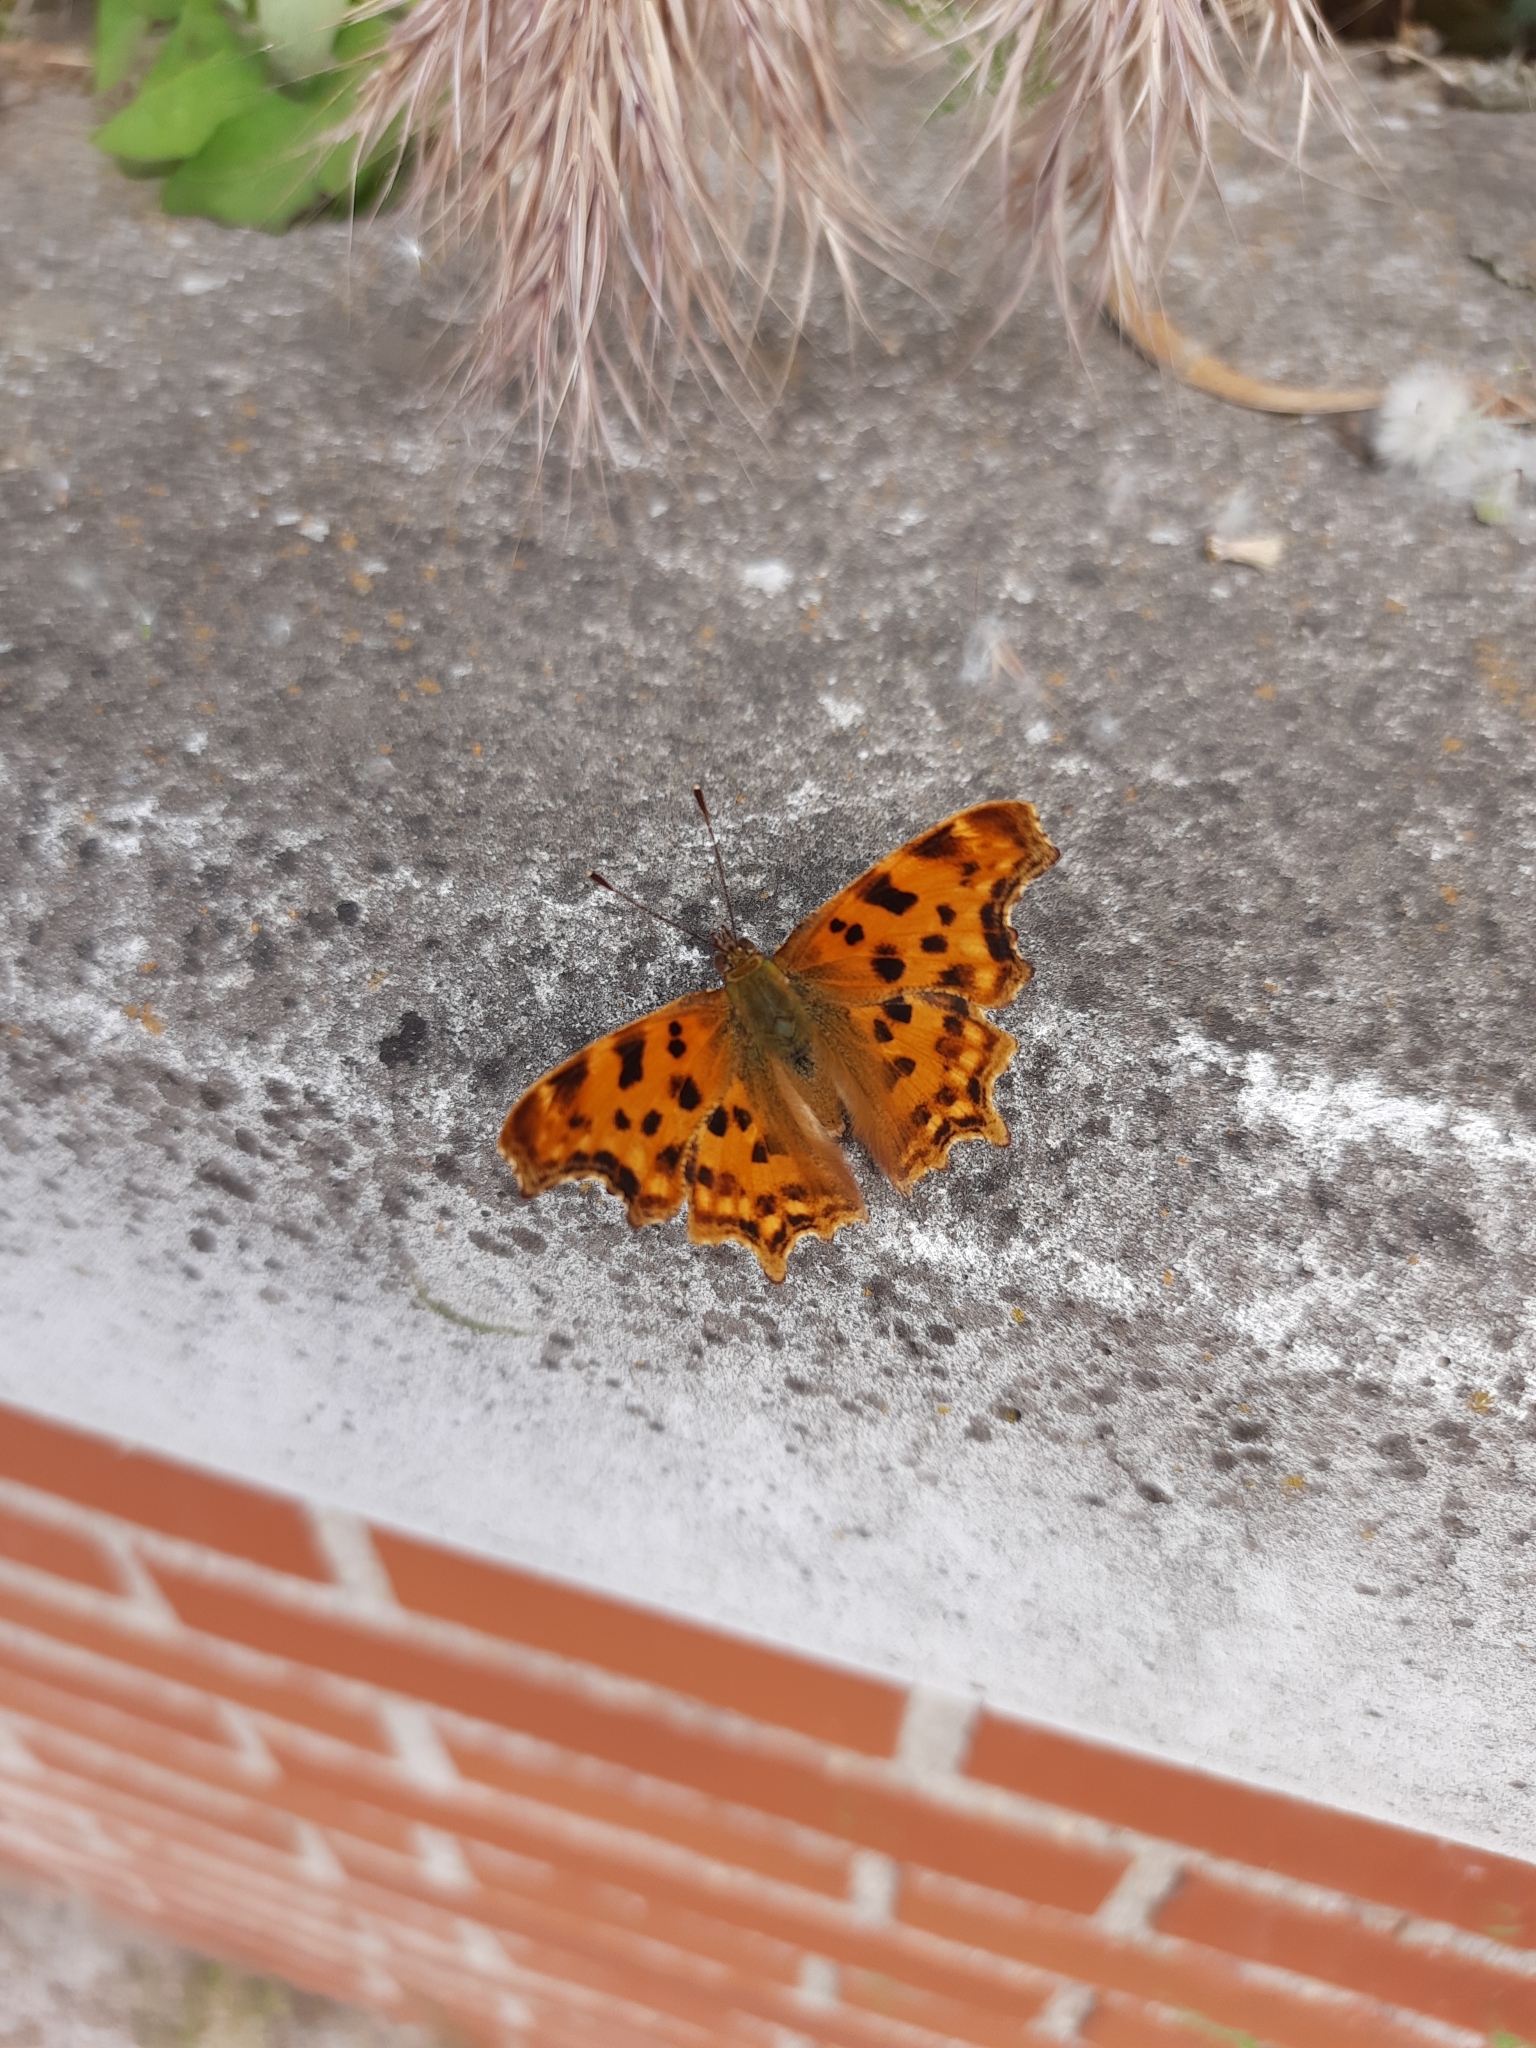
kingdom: Animalia
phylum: Arthropoda
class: Insecta
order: Lepidoptera
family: Nymphalidae
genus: Polygonia
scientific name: Polygonia c-album
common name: Comma
